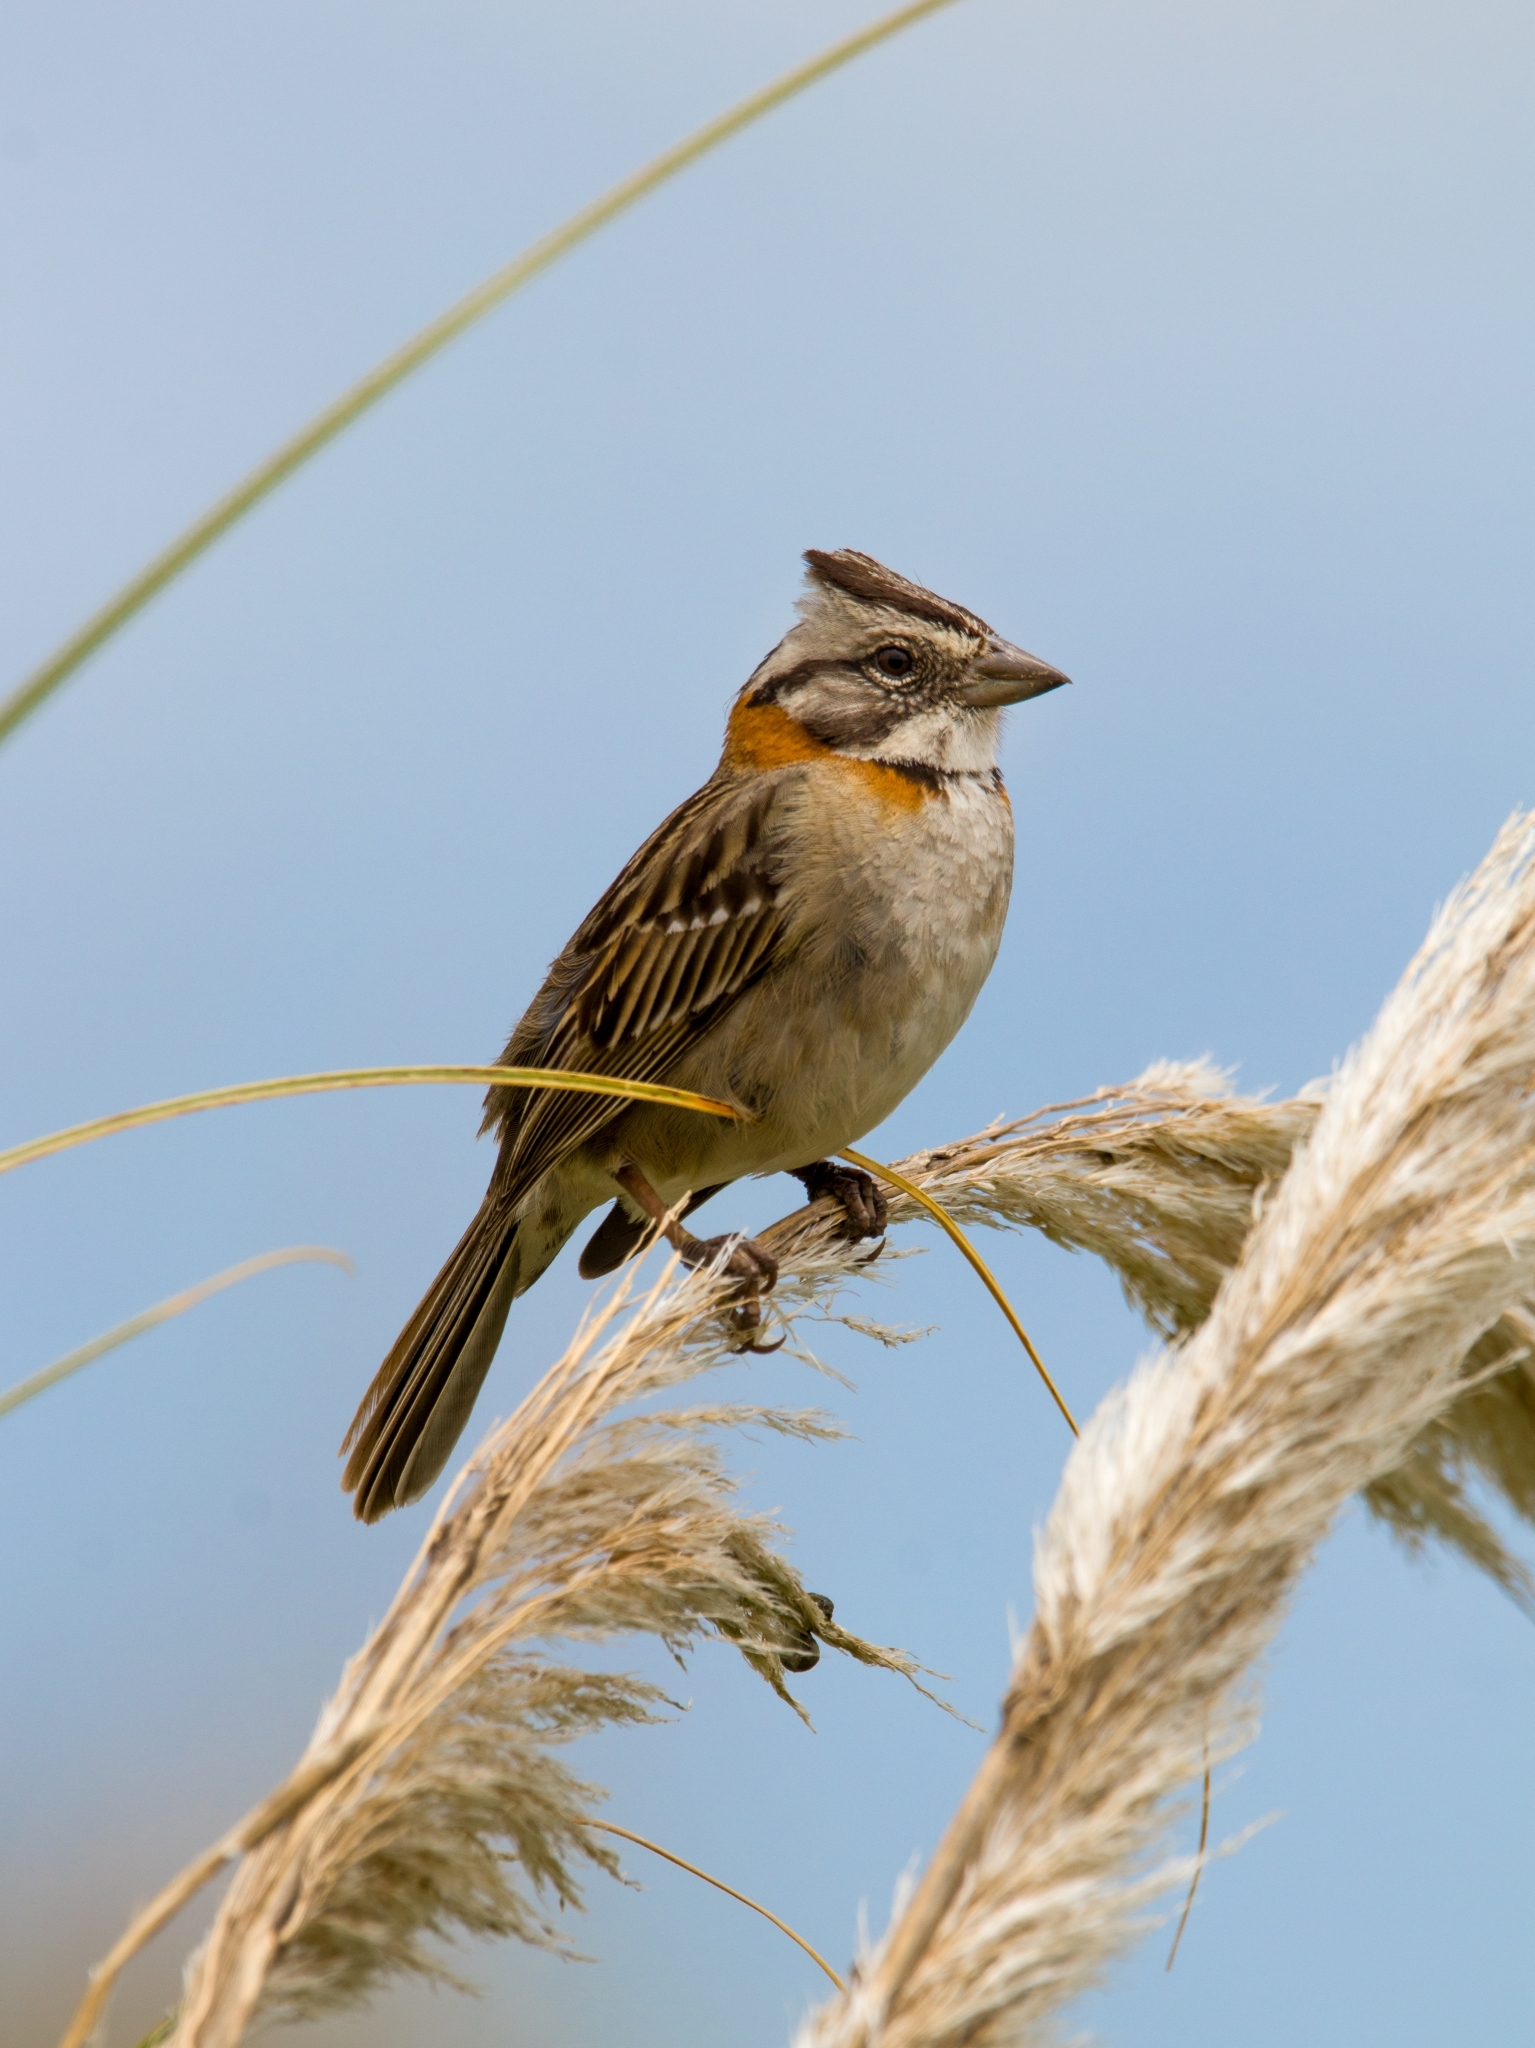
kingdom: Animalia
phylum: Chordata
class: Aves
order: Passeriformes
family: Passerellidae
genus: Zonotrichia
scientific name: Zonotrichia capensis
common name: Rufous-collared sparrow
